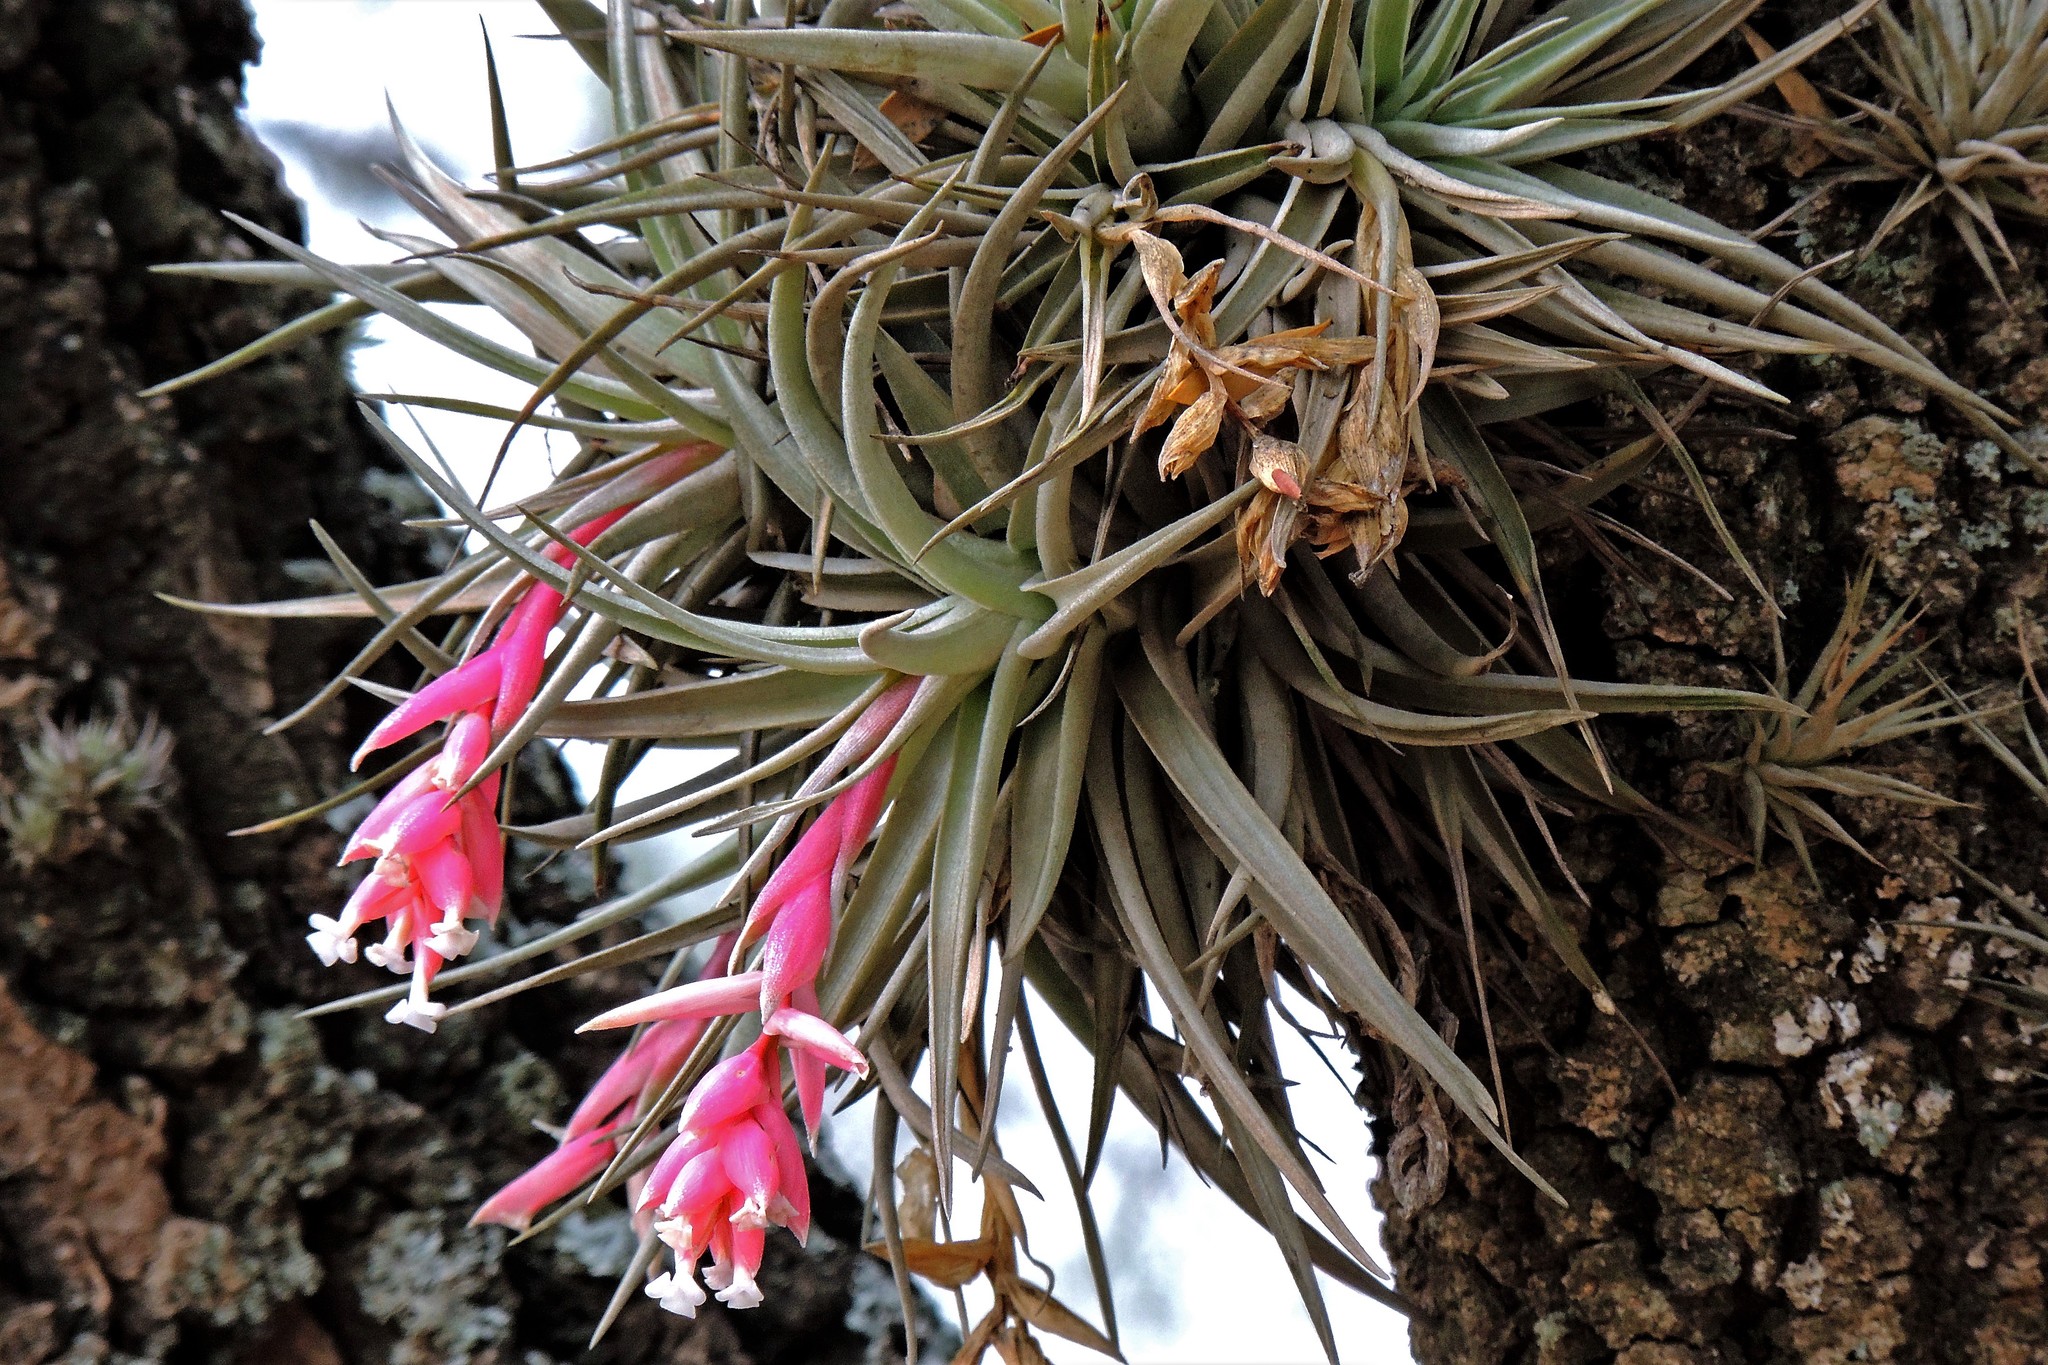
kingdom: Plantae
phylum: Tracheophyta
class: Liliopsida
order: Poales
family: Bromeliaceae
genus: Tillandsia
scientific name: Tillandsia recurvifolia
